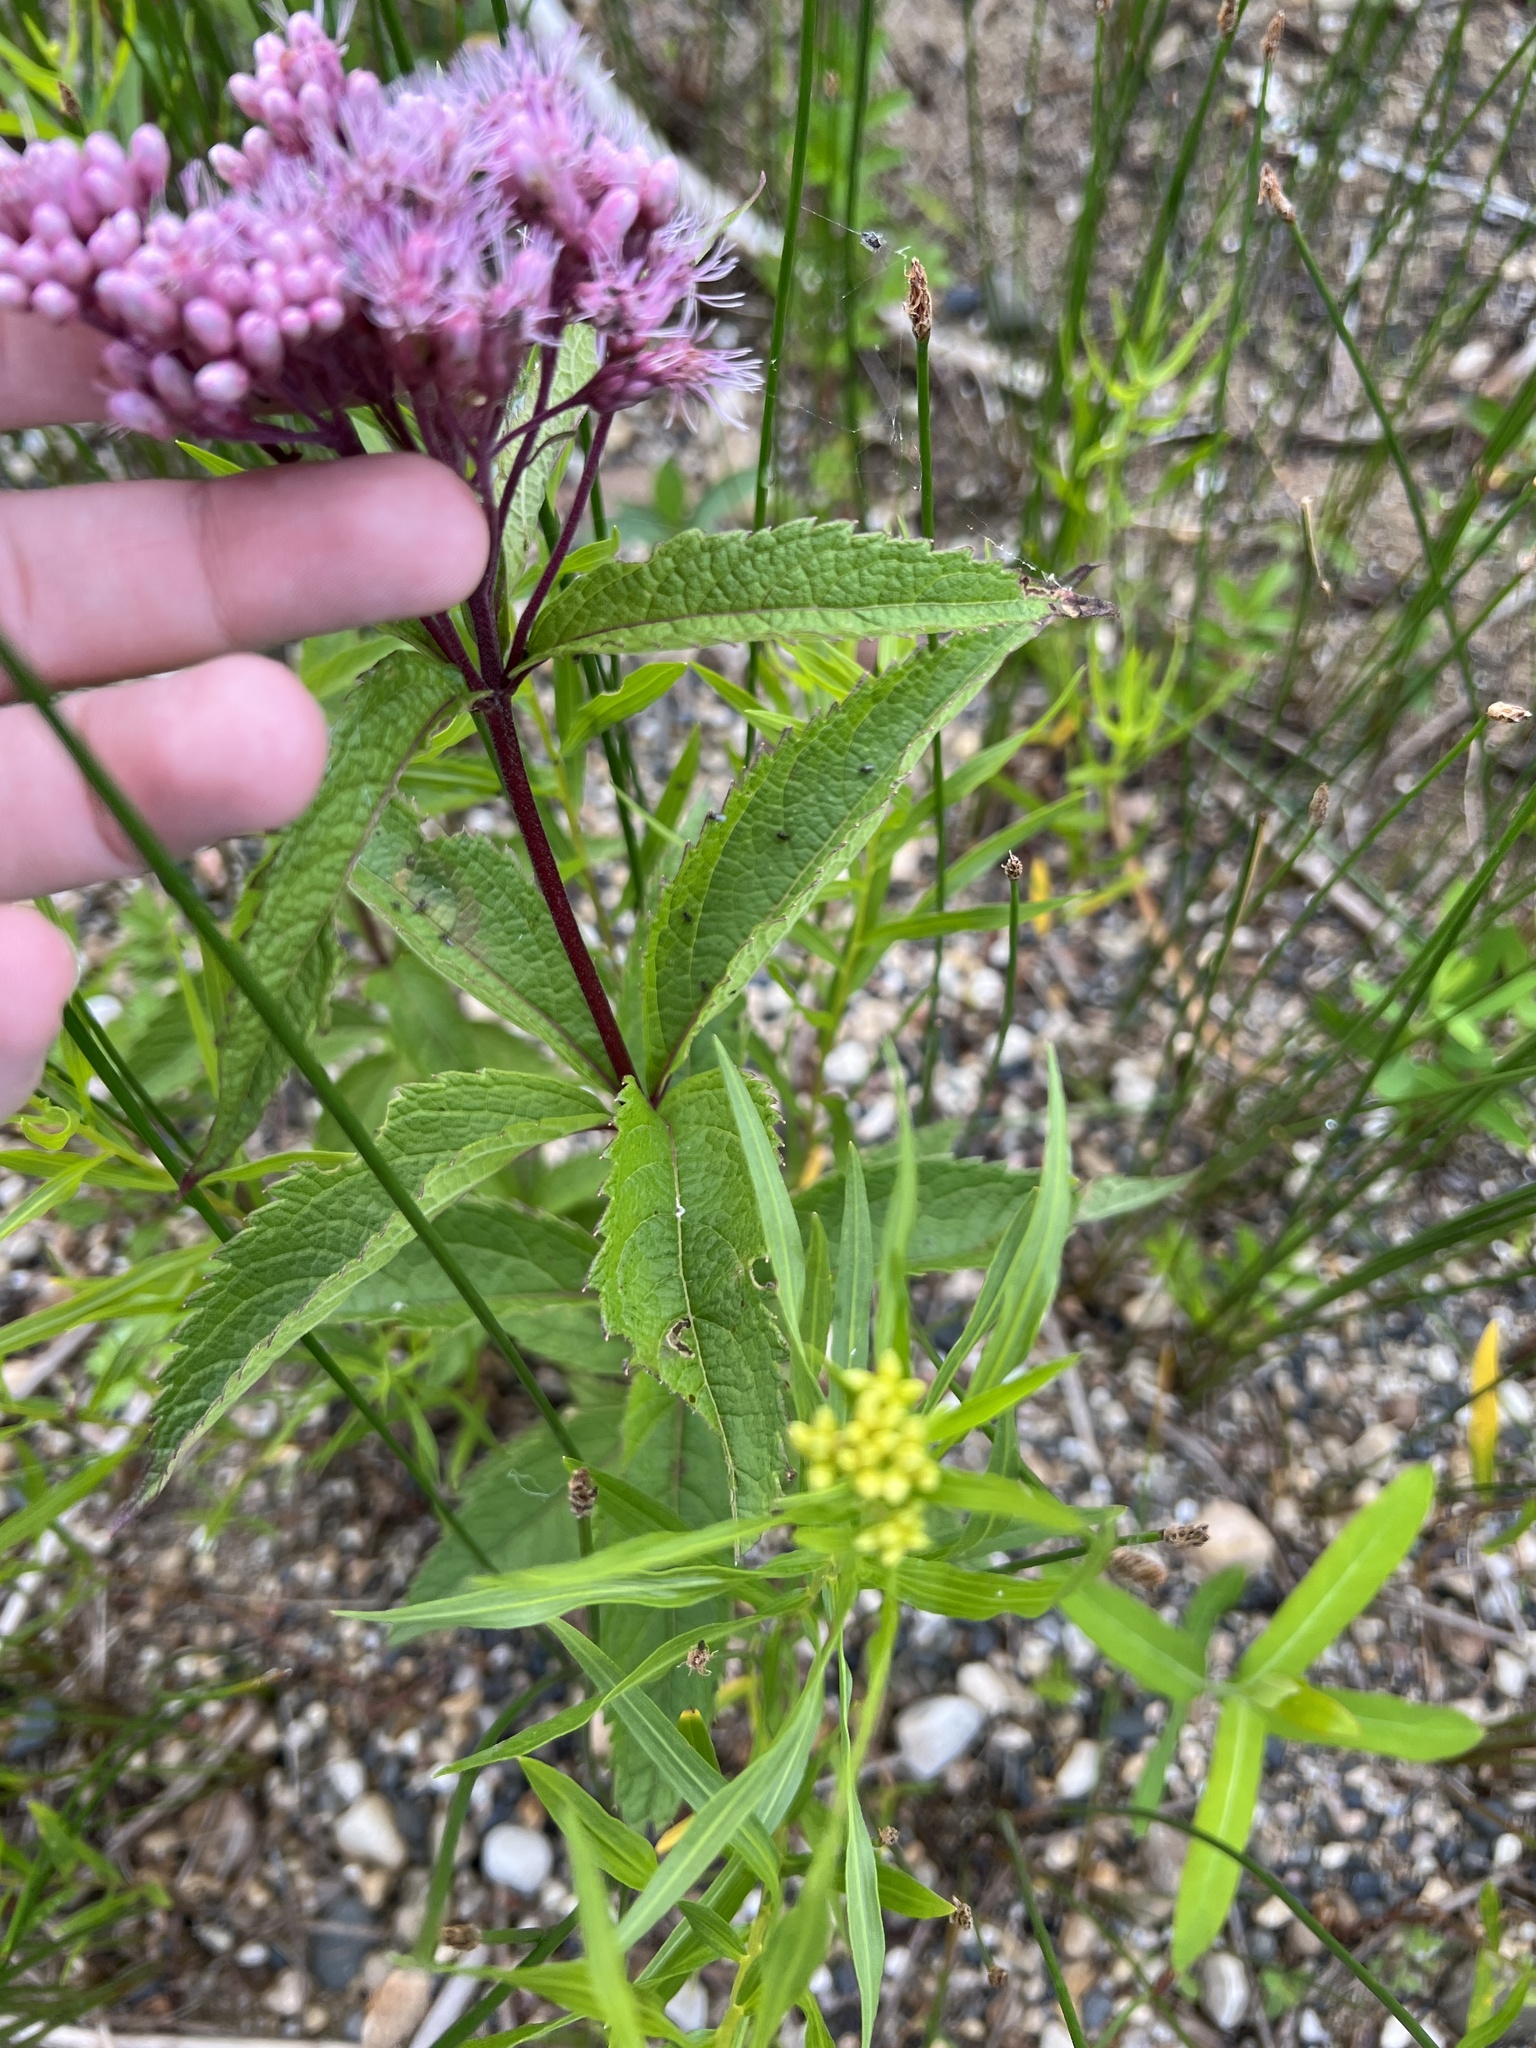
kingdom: Plantae
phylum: Tracheophyta
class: Magnoliopsida
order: Asterales
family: Asteraceae
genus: Eutrochium
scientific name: Eutrochium maculatum
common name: Spotted joe pye weed
